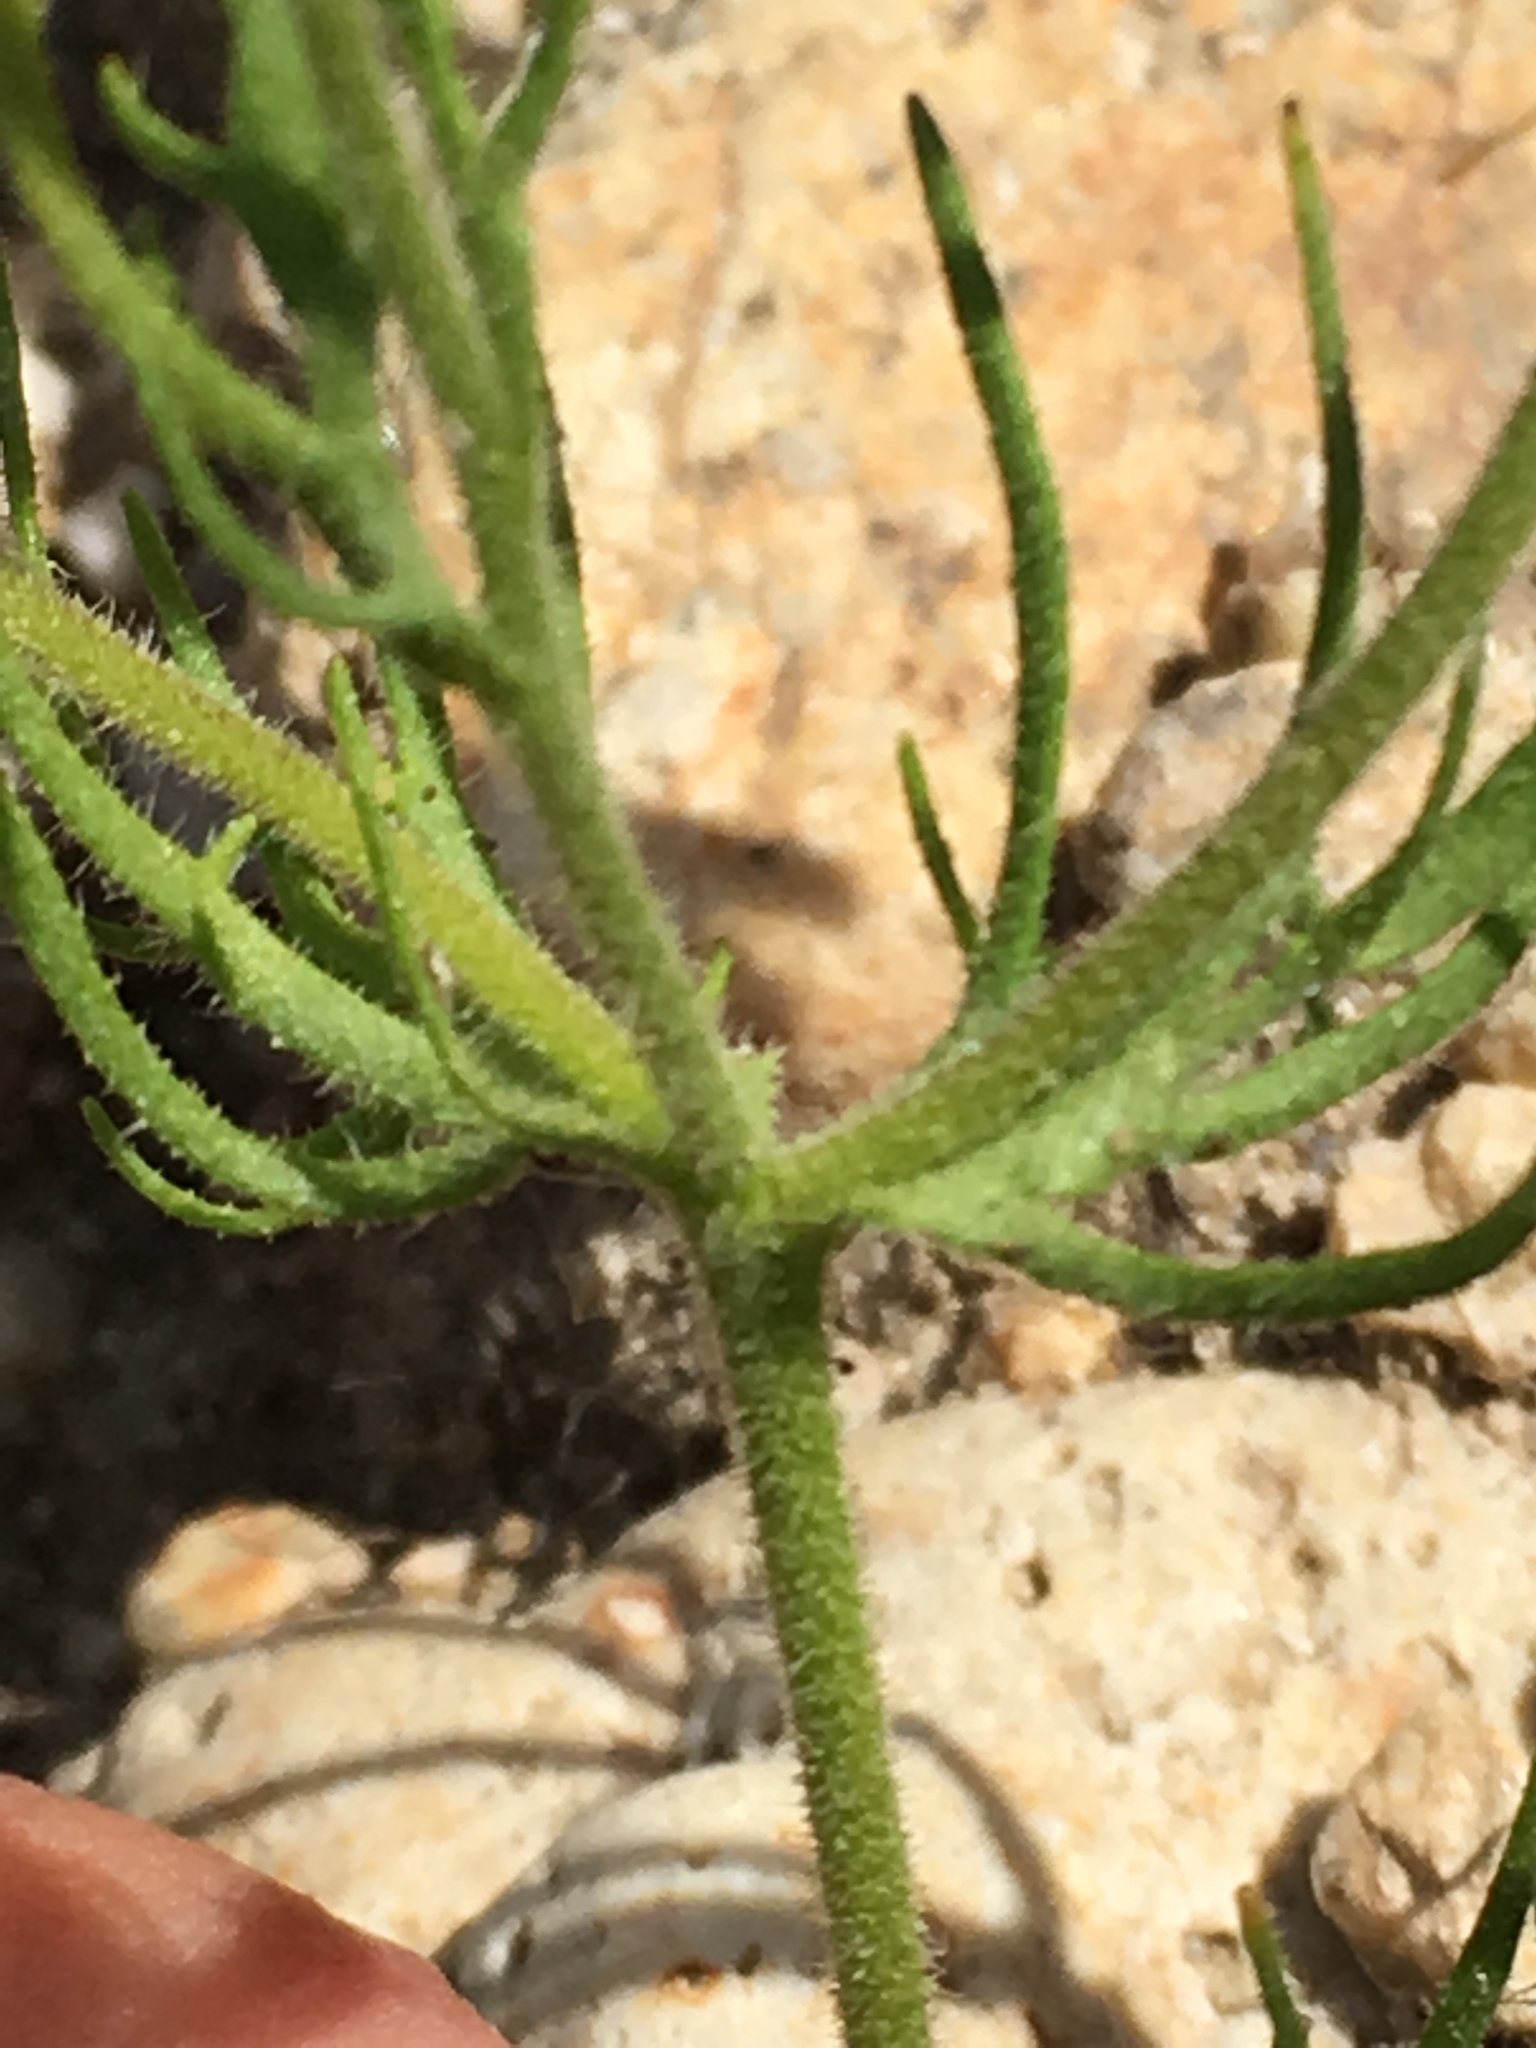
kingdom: Plantae
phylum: Tracheophyta
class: Magnoliopsida
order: Asterales
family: Asteraceae
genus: Lasthenia
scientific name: Lasthenia coronaria
